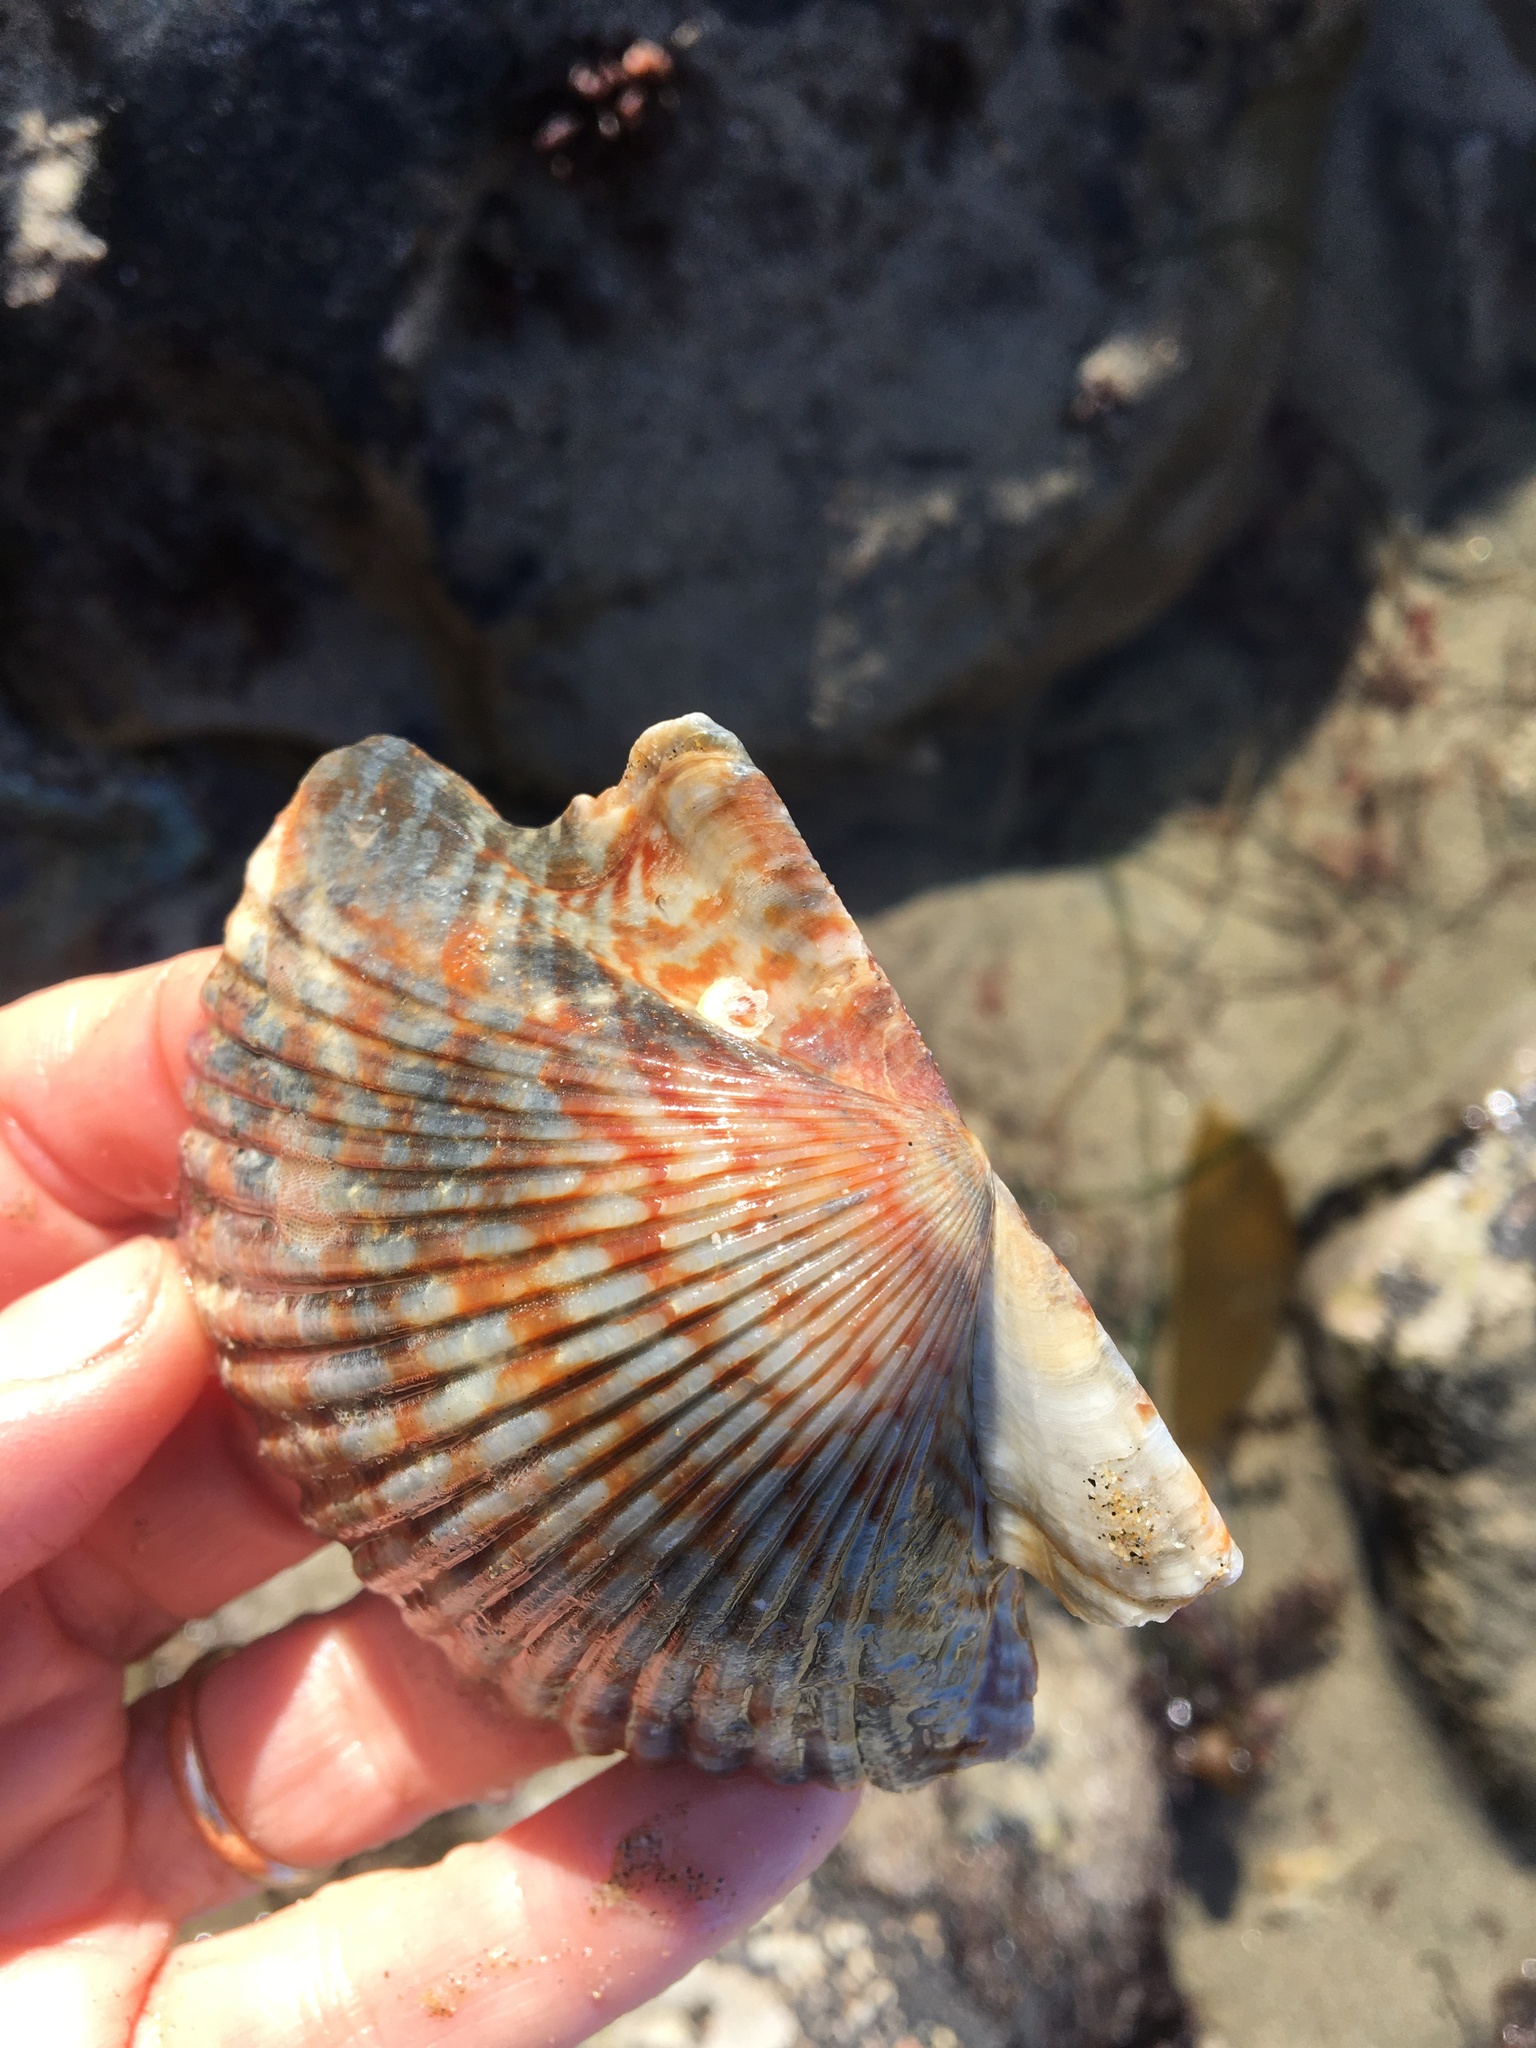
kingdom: Animalia
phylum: Mollusca
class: Bivalvia
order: Pectinida
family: Pectinidae
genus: Argopecten
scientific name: Argopecten ventricosus
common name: Catarina scallop
